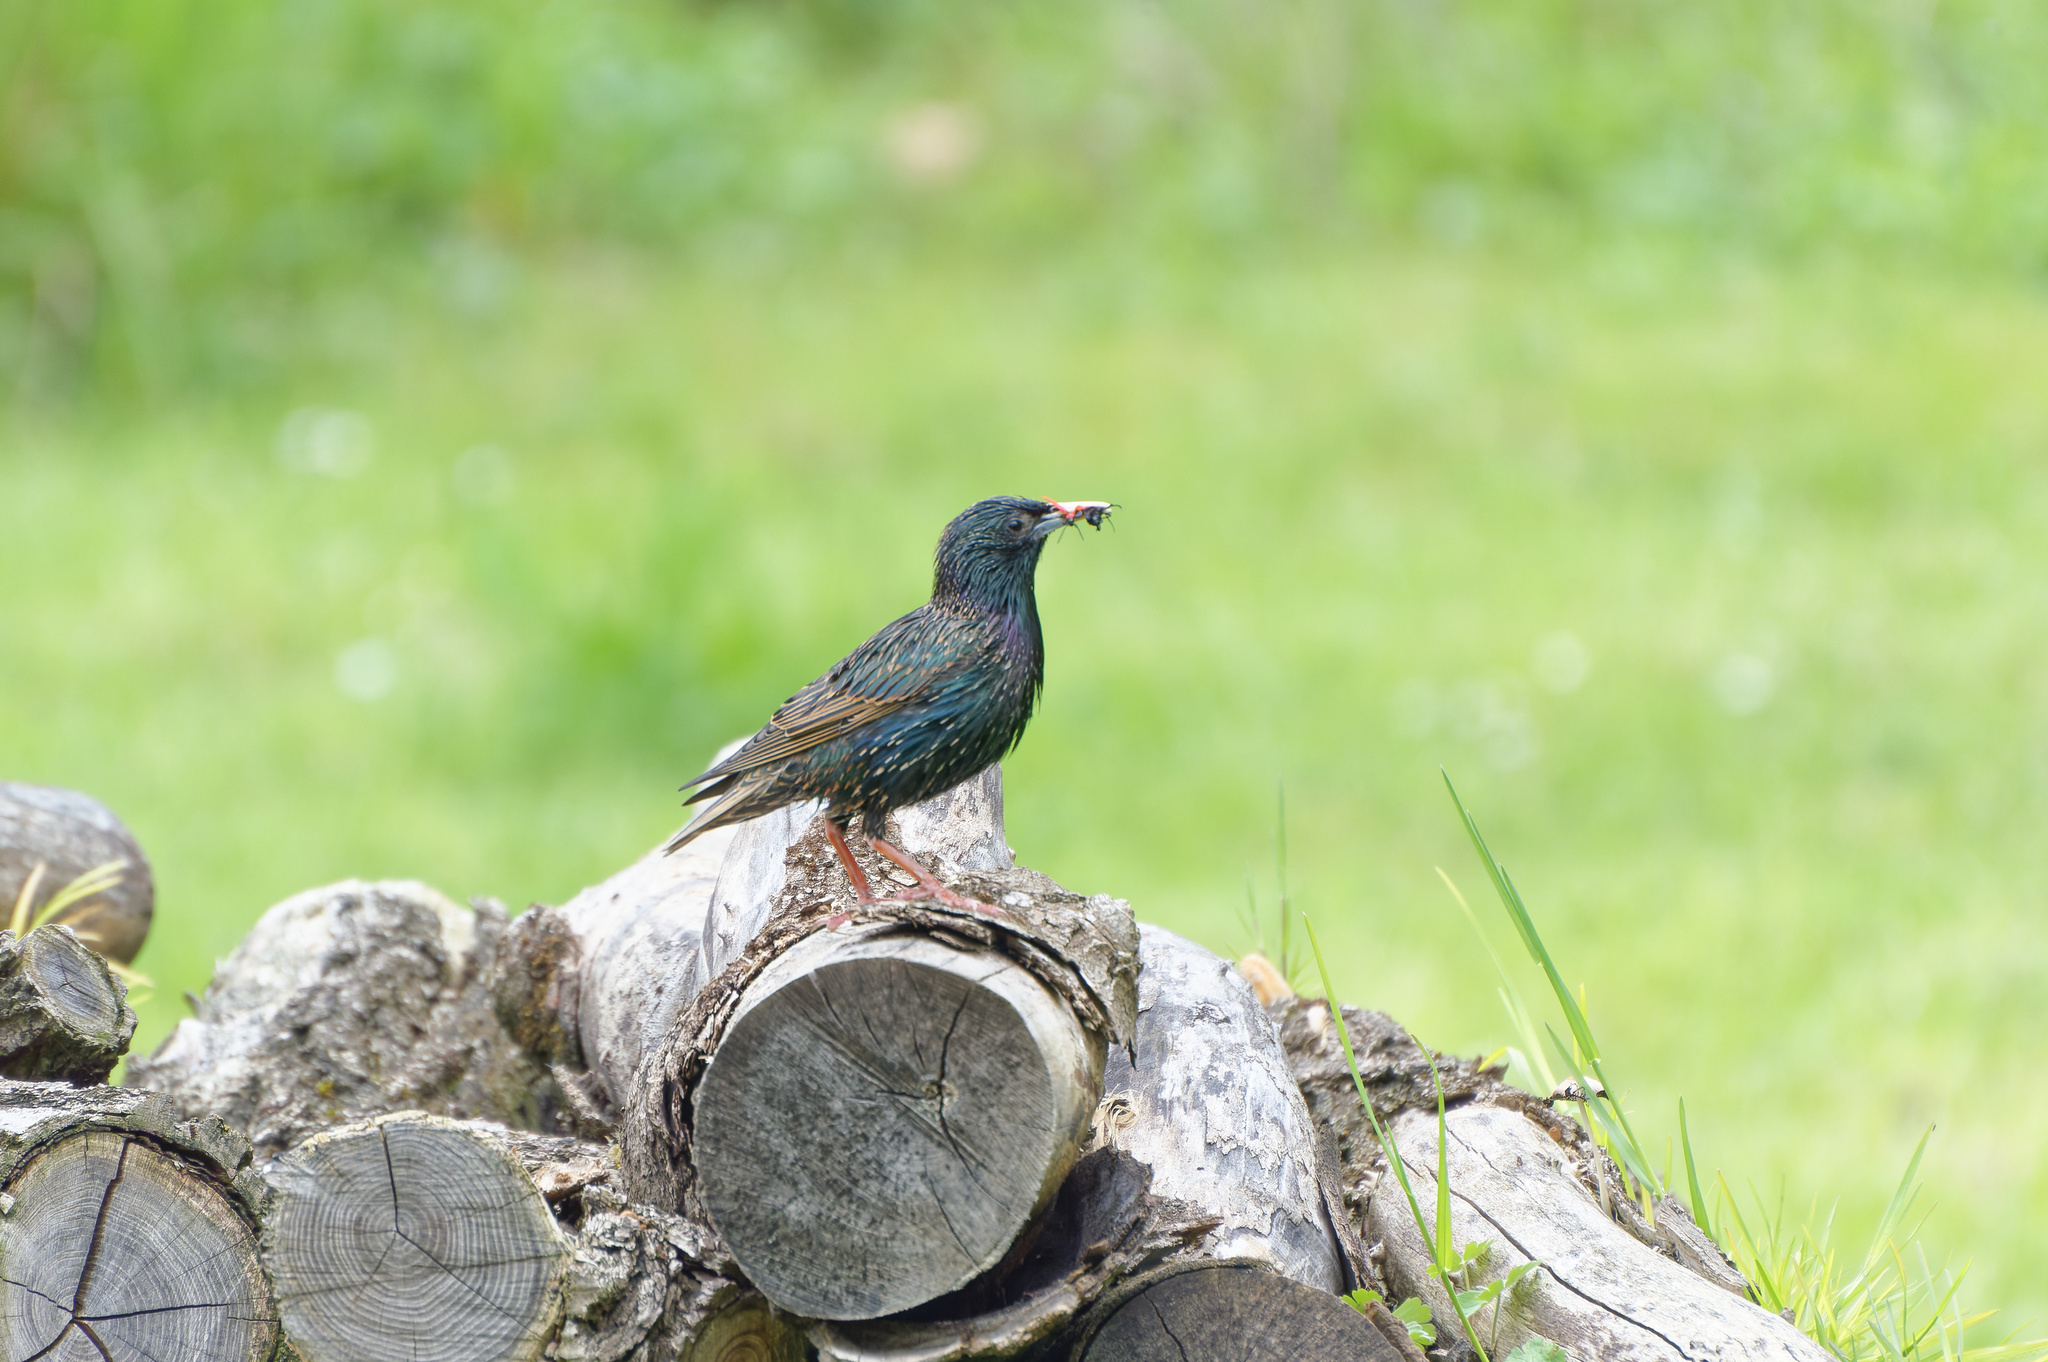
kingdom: Animalia
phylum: Chordata
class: Aves
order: Passeriformes
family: Sturnidae
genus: Sturnus
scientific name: Sturnus vulgaris
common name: Common starling
